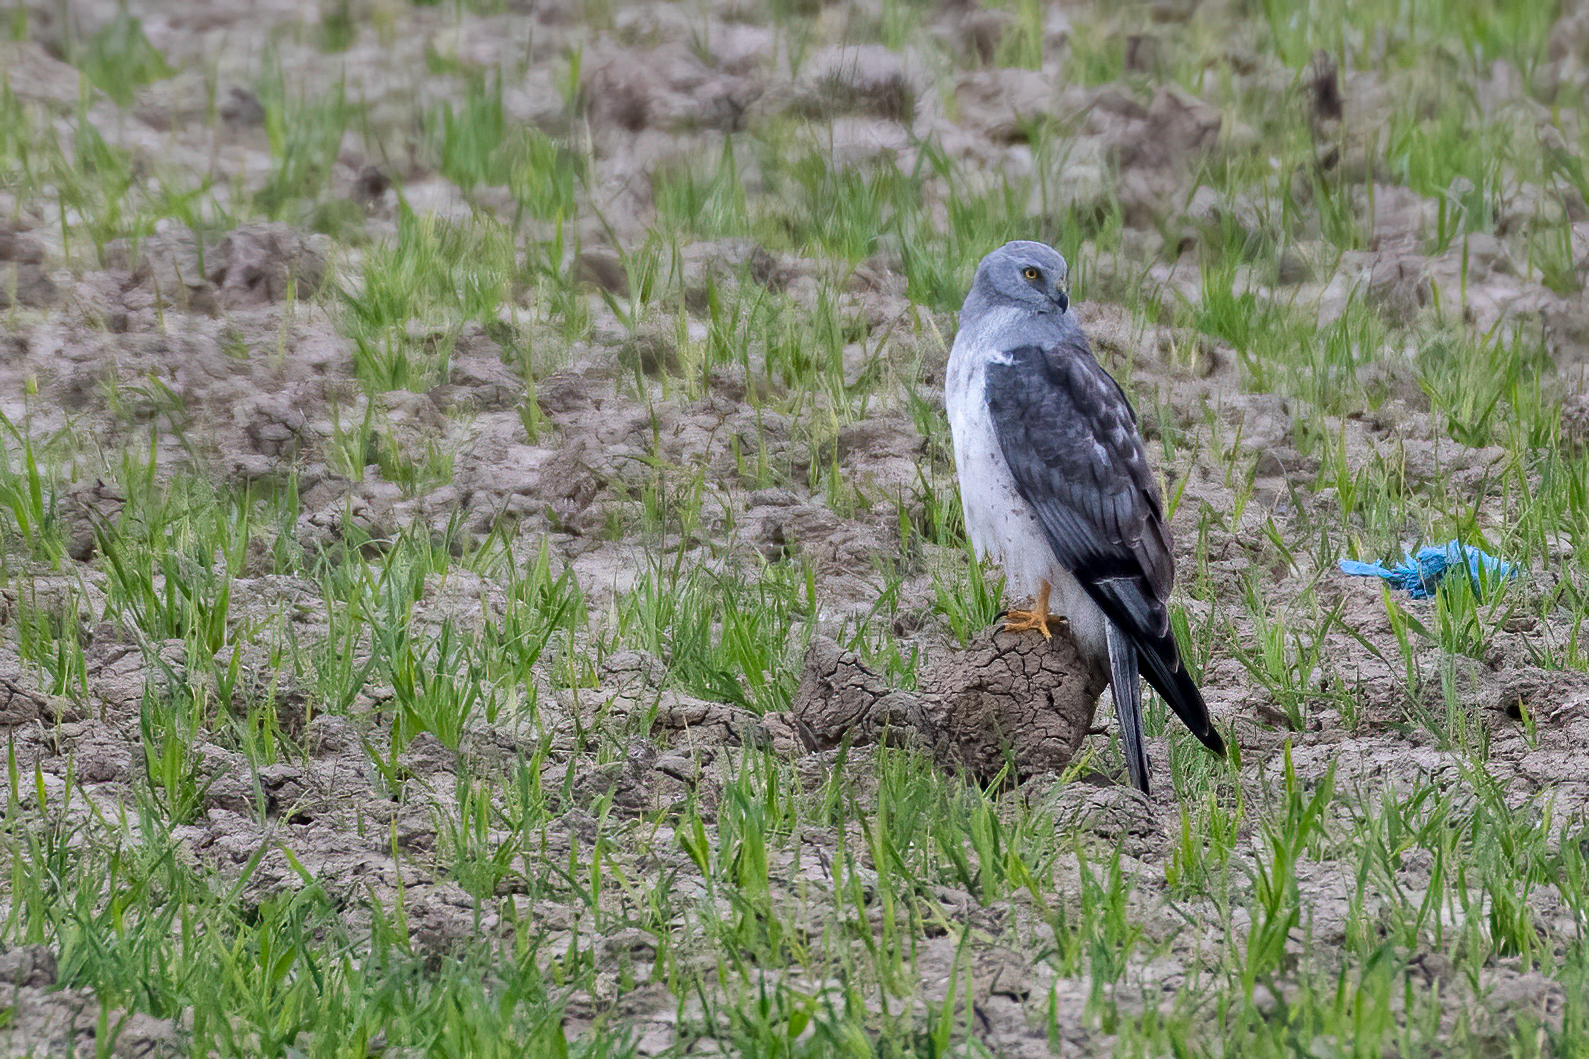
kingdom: Animalia
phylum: Chordata
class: Aves
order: Accipitriformes
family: Accipitridae
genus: Circus
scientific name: Circus cyaneus
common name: Hen harrier
